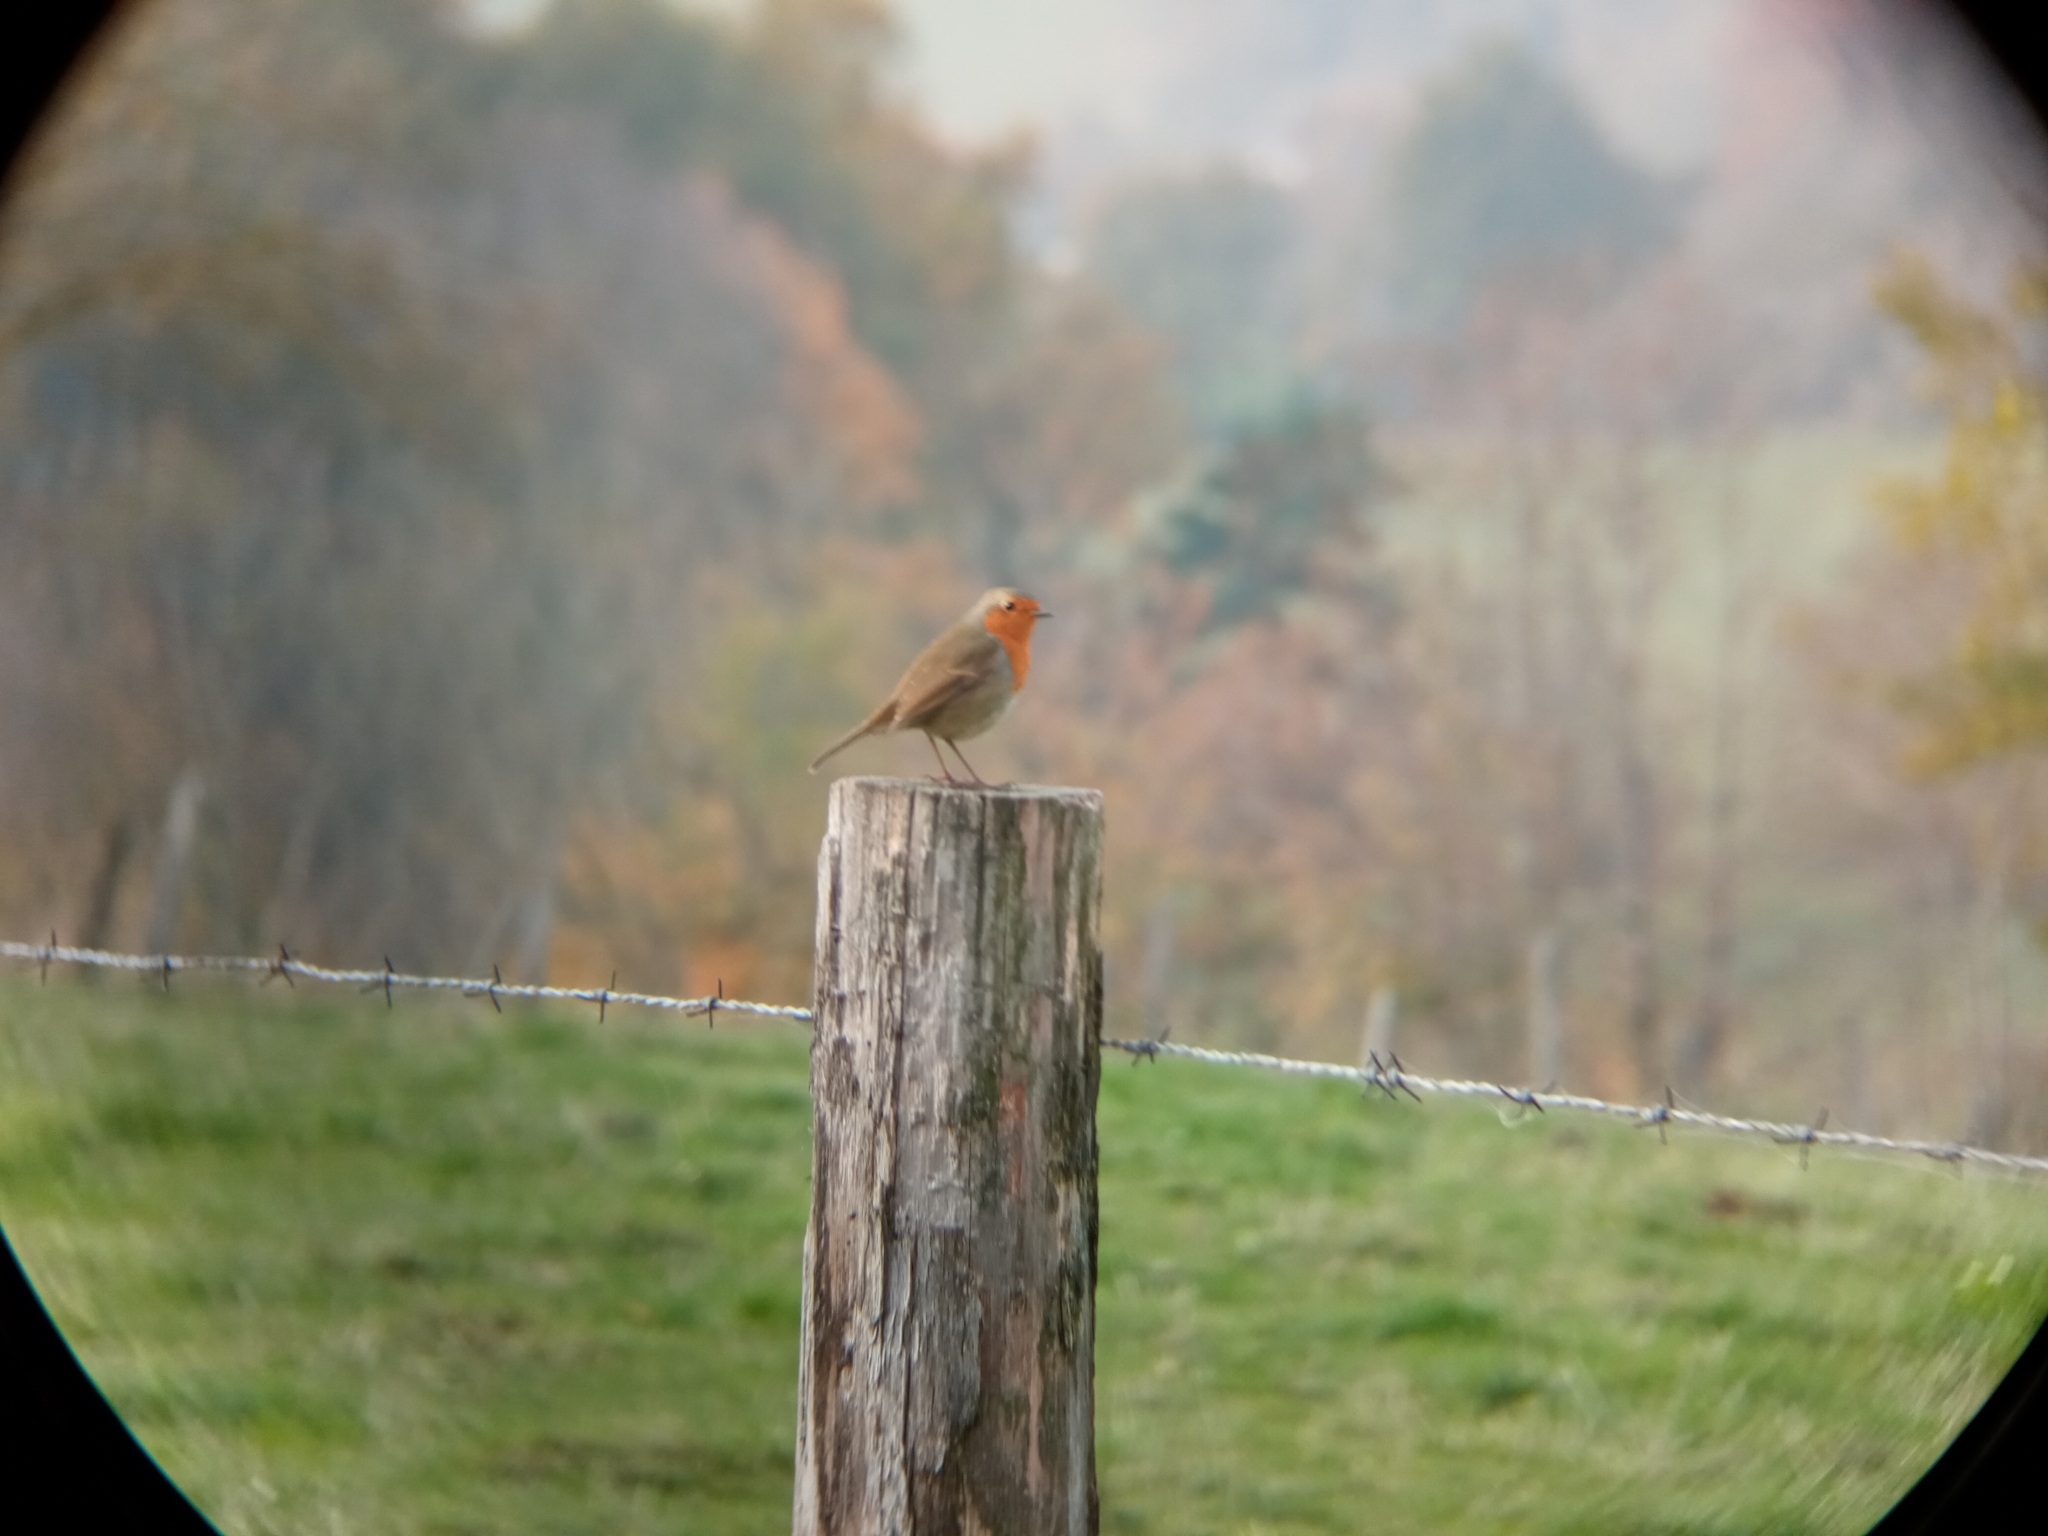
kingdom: Animalia
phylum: Chordata
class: Aves
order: Passeriformes
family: Muscicapidae
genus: Erithacus
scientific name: Erithacus rubecula
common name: European robin
